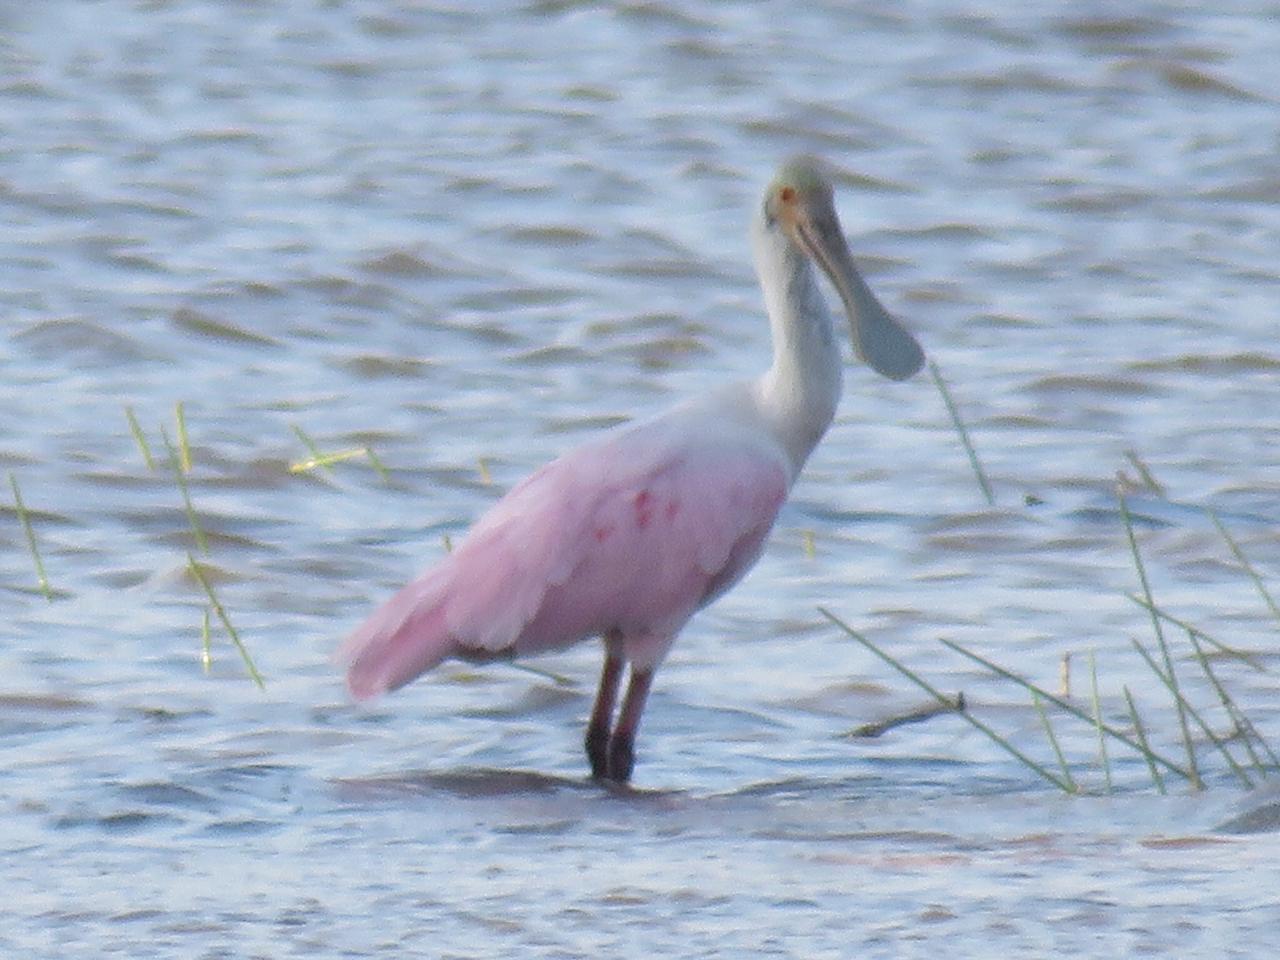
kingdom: Animalia
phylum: Chordata
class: Aves
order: Pelecaniformes
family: Threskiornithidae
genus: Platalea
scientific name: Platalea ajaja
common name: Roseate spoonbill
